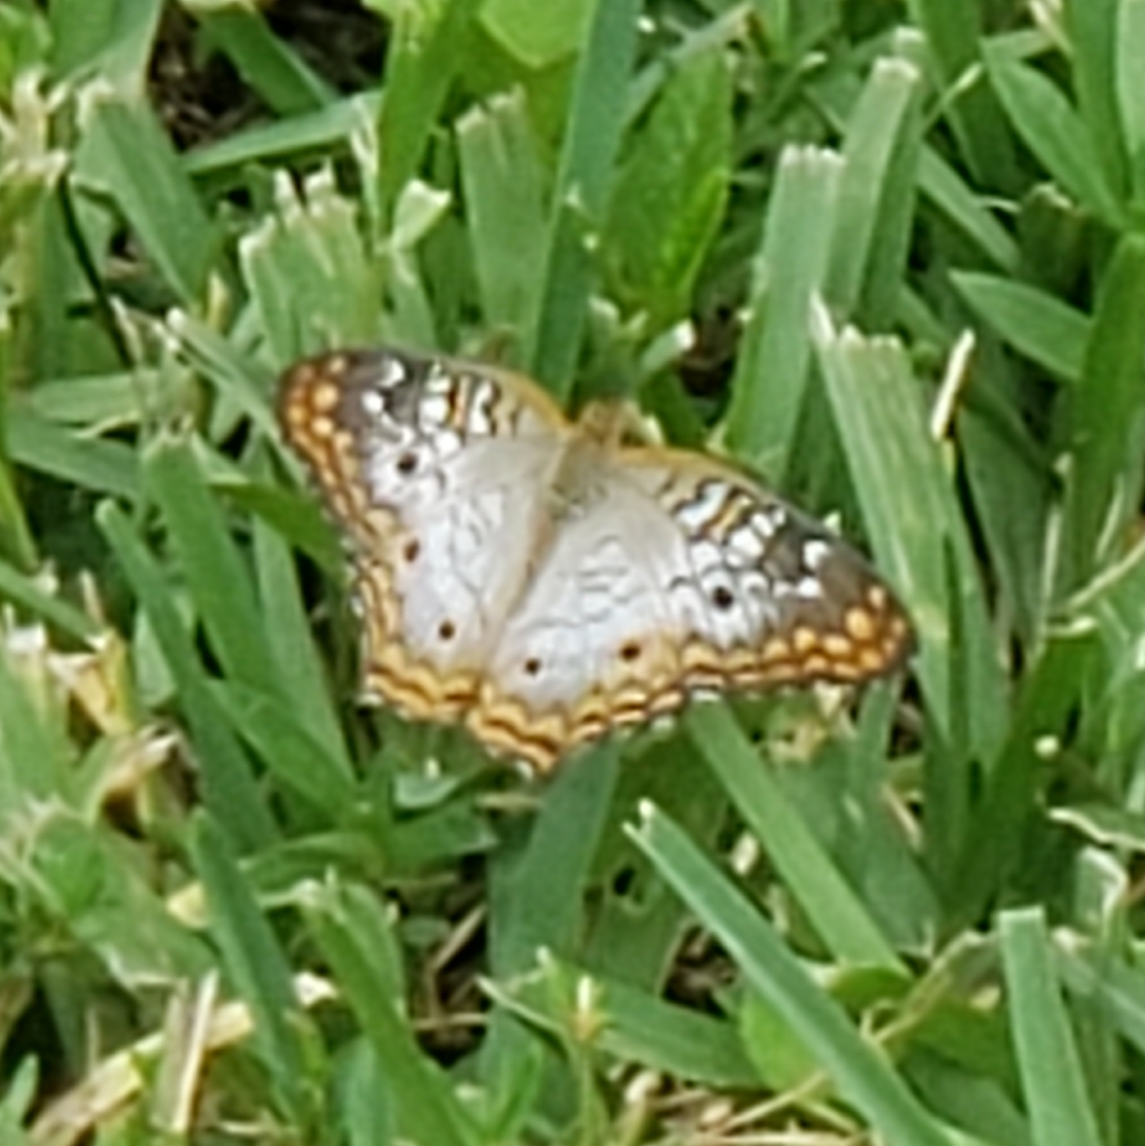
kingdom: Animalia
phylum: Arthropoda
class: Insecta
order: Lepidoptera
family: Nymphalidae
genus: Anartia
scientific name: Anartia jatrophae
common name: White peacock
